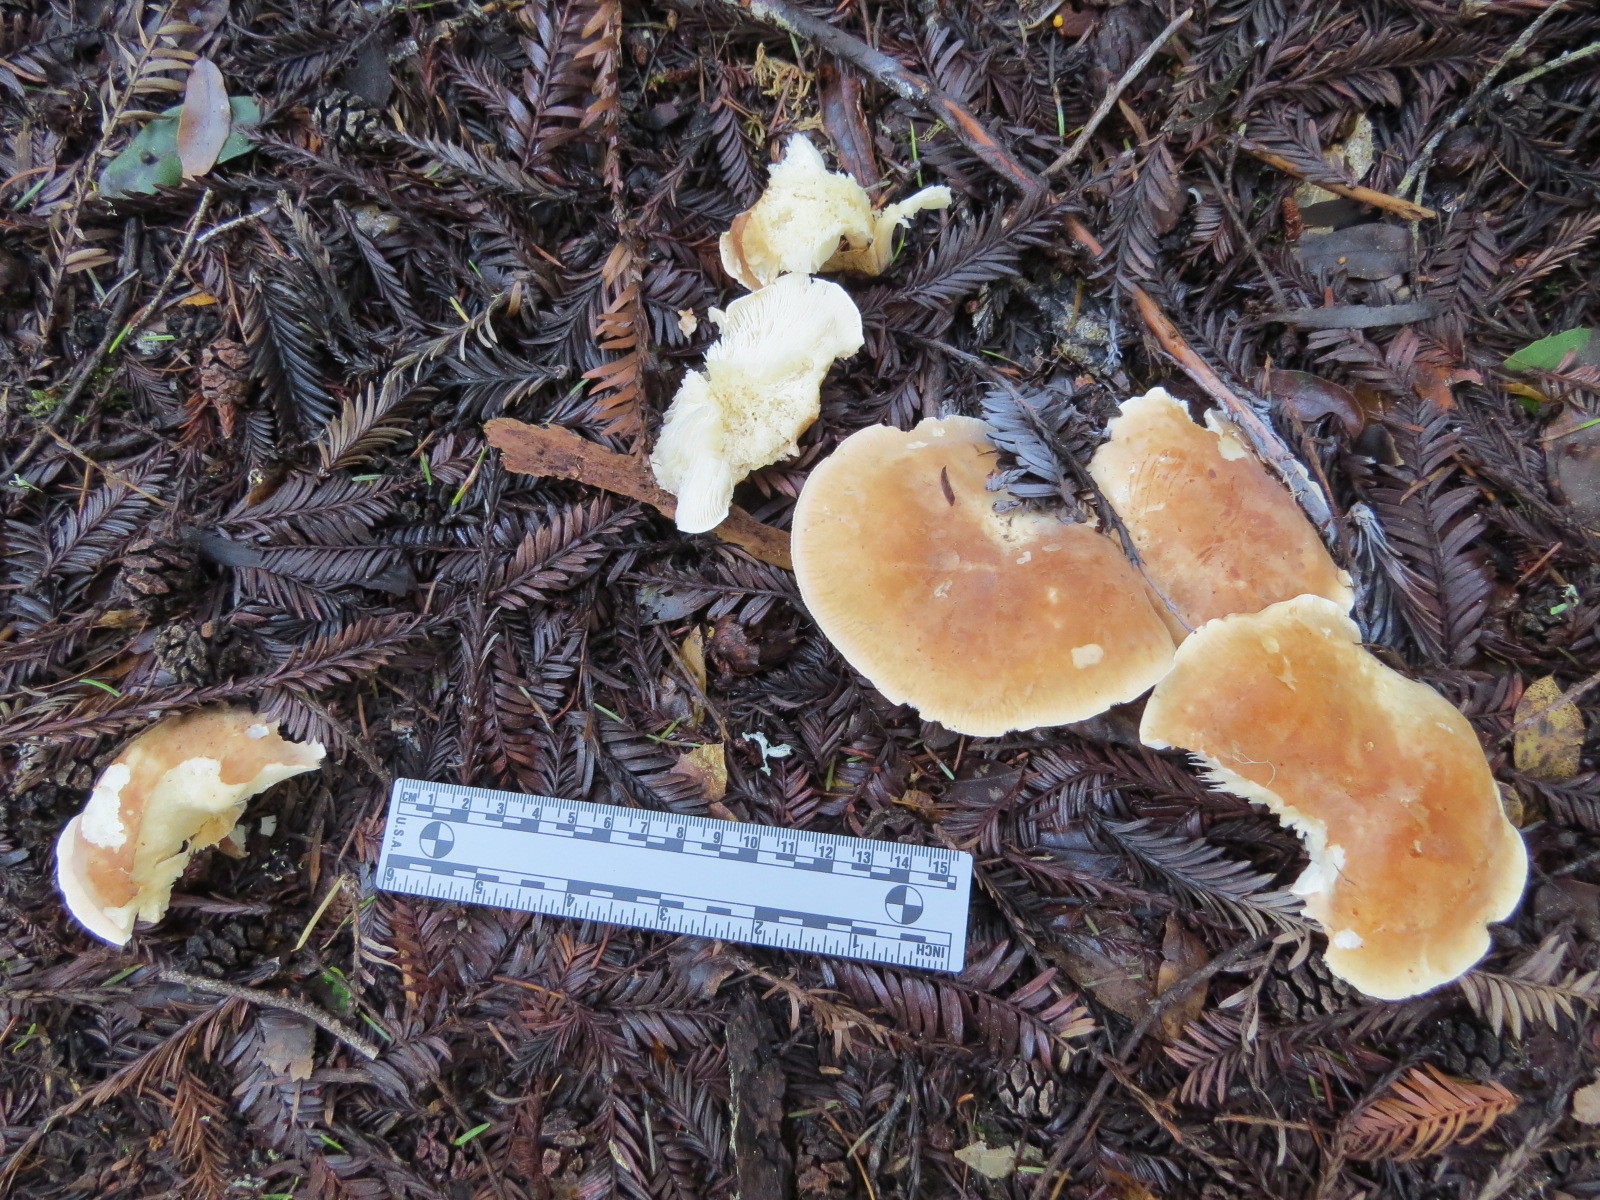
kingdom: Fungi
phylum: Basidiomycota
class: Agaricomycetes
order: Agaricales
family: Tricholomataceae
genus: Leucopaxillus
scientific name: Leucopaxillus gentianeus
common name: Bitter funnel
